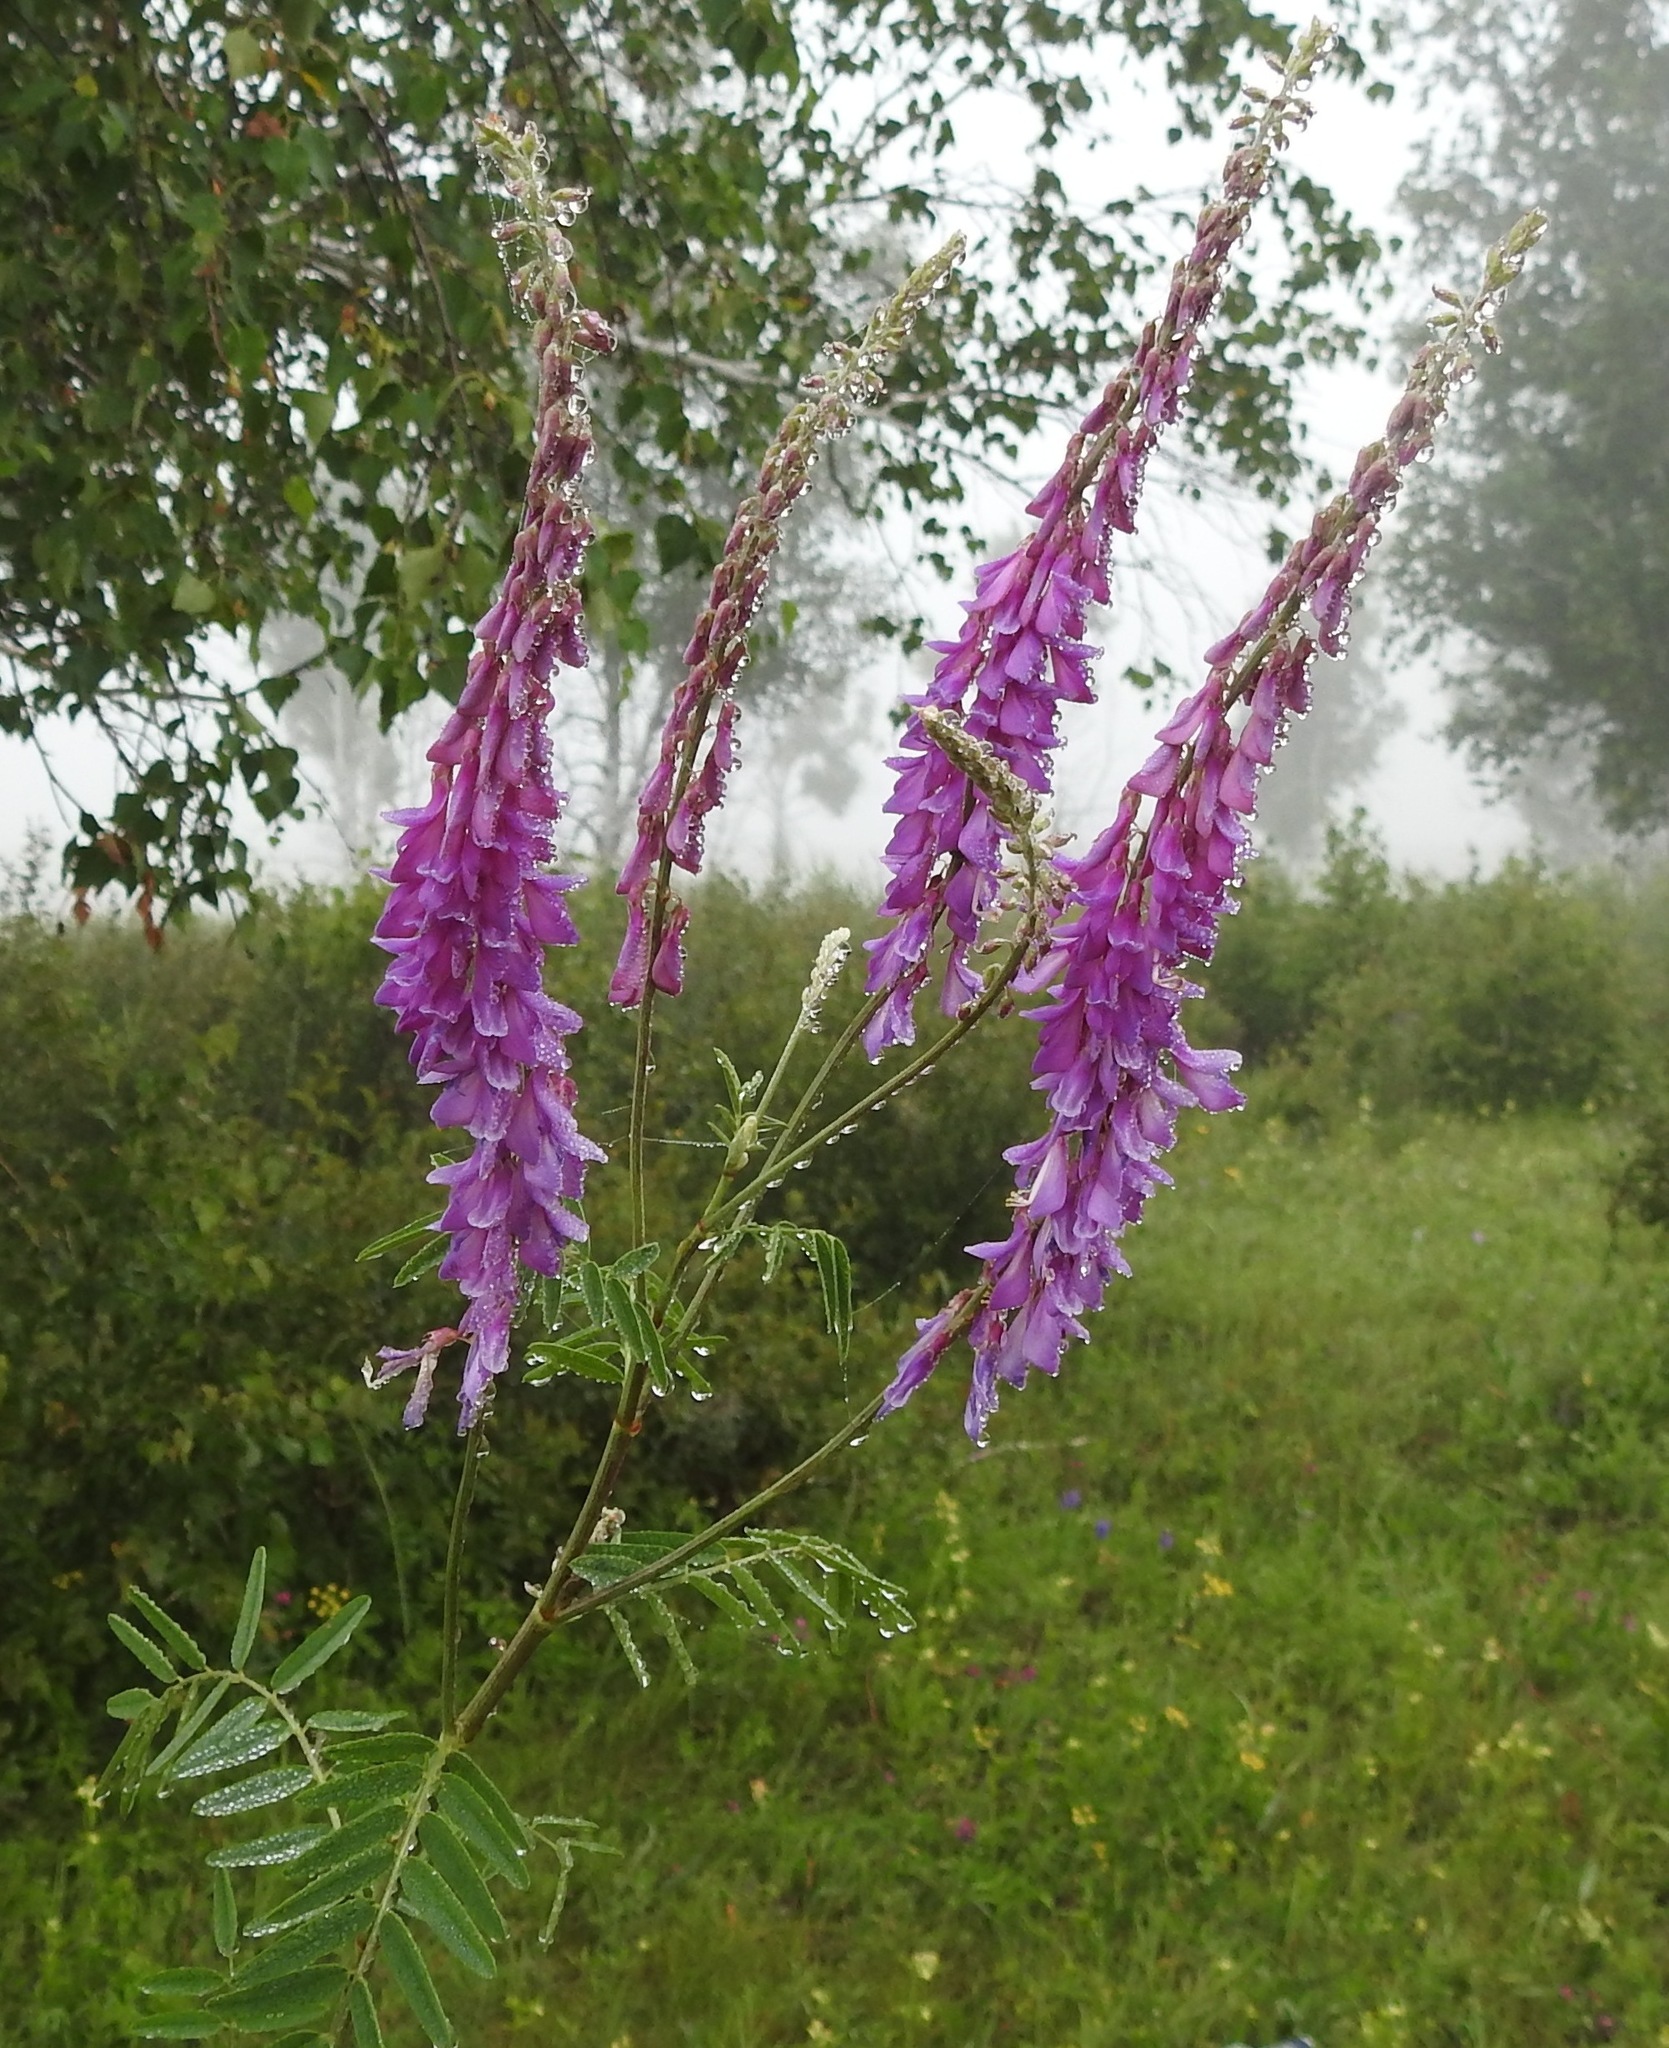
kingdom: Plantae
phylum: Tracheophyta
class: Magnoliopsida
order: Fabales
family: Fabaceae
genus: Hedysarum
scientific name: Hedysarum alpinum
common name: Alpine sweet-vetch
